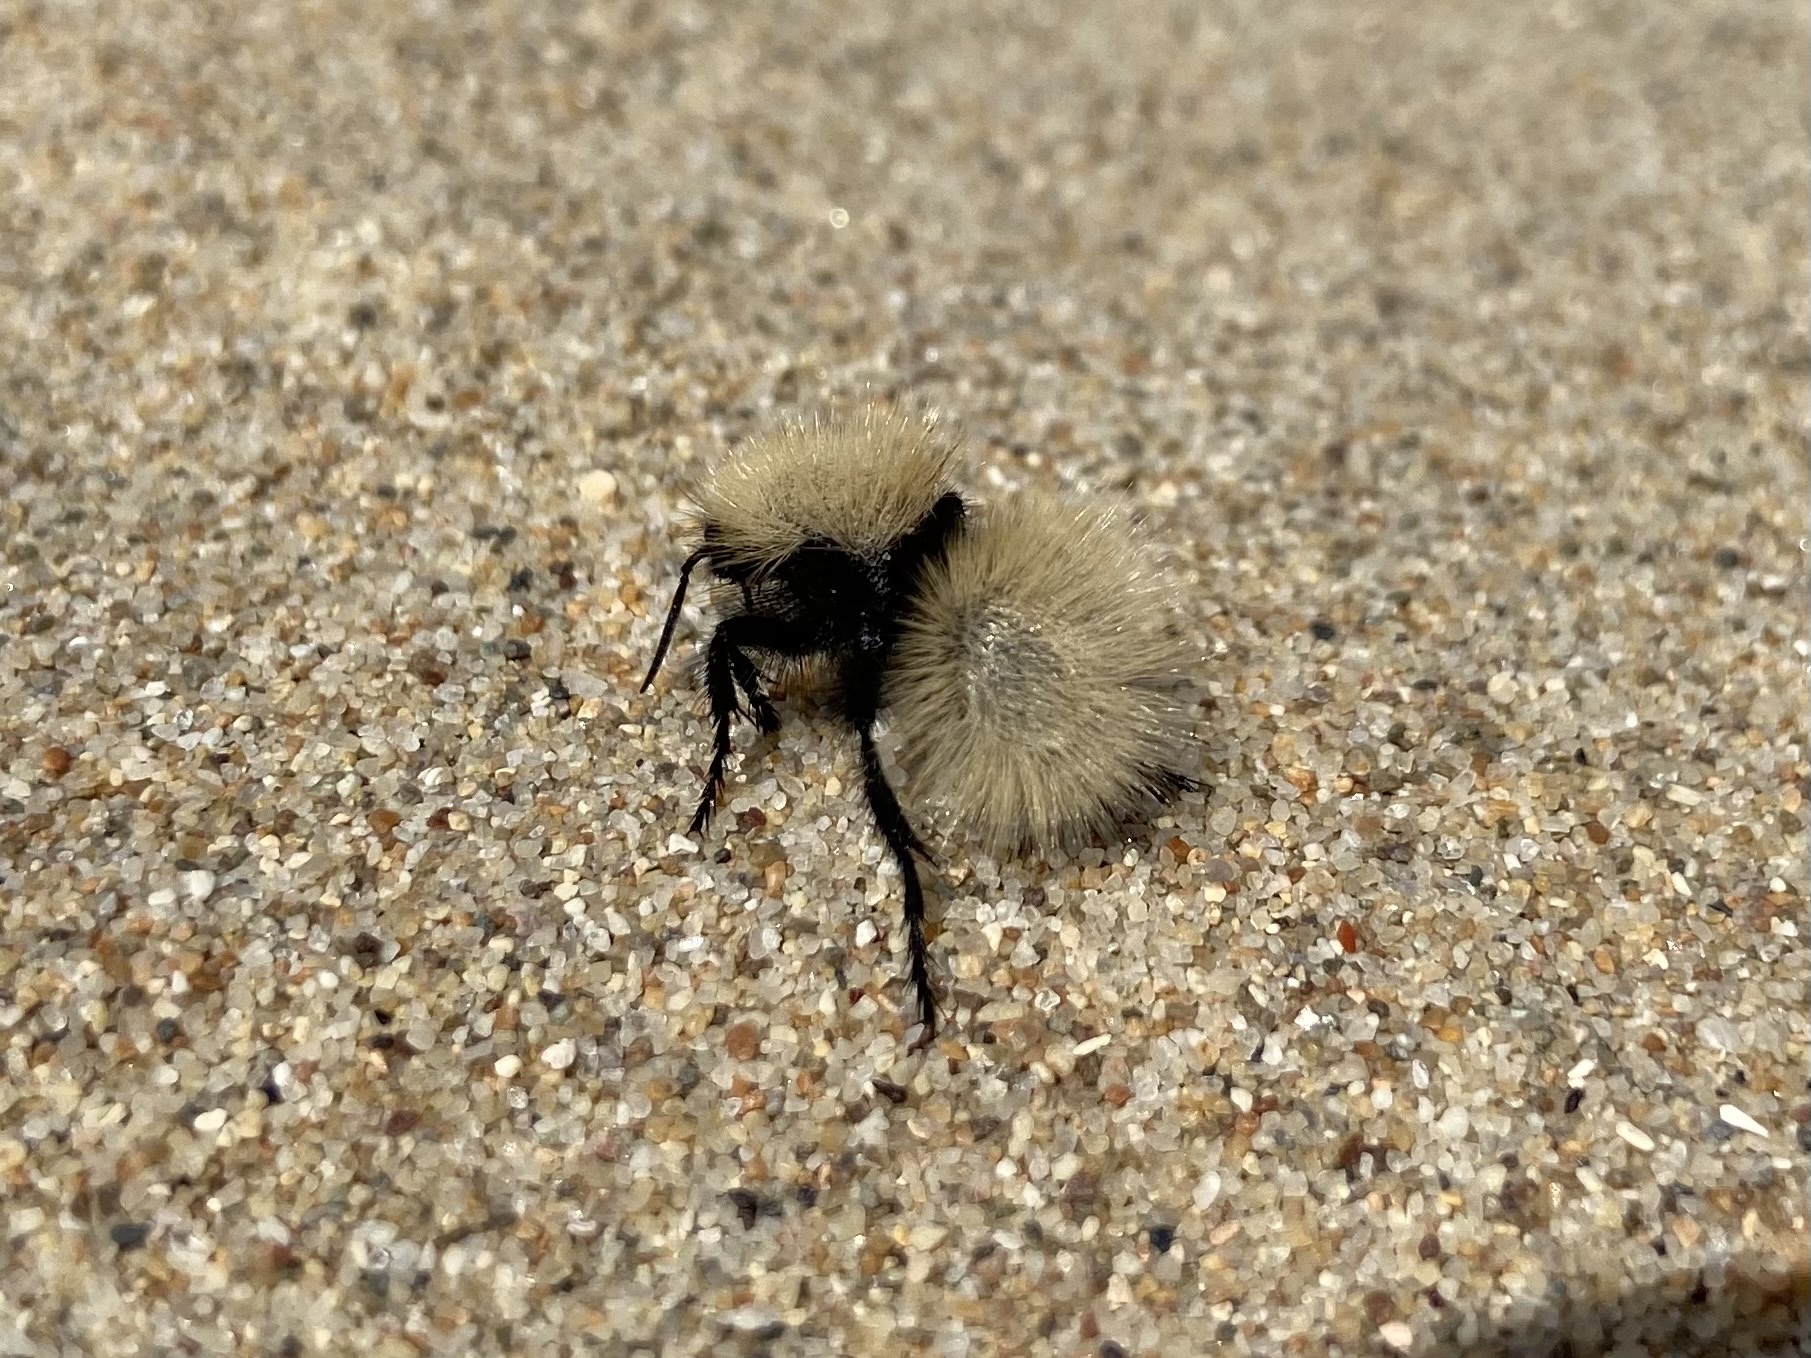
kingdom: Animalia
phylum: Arthropoda
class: Insecta
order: Hymenoptera
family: Mutillidae
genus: Dasymutilla
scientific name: Dasymutilla
